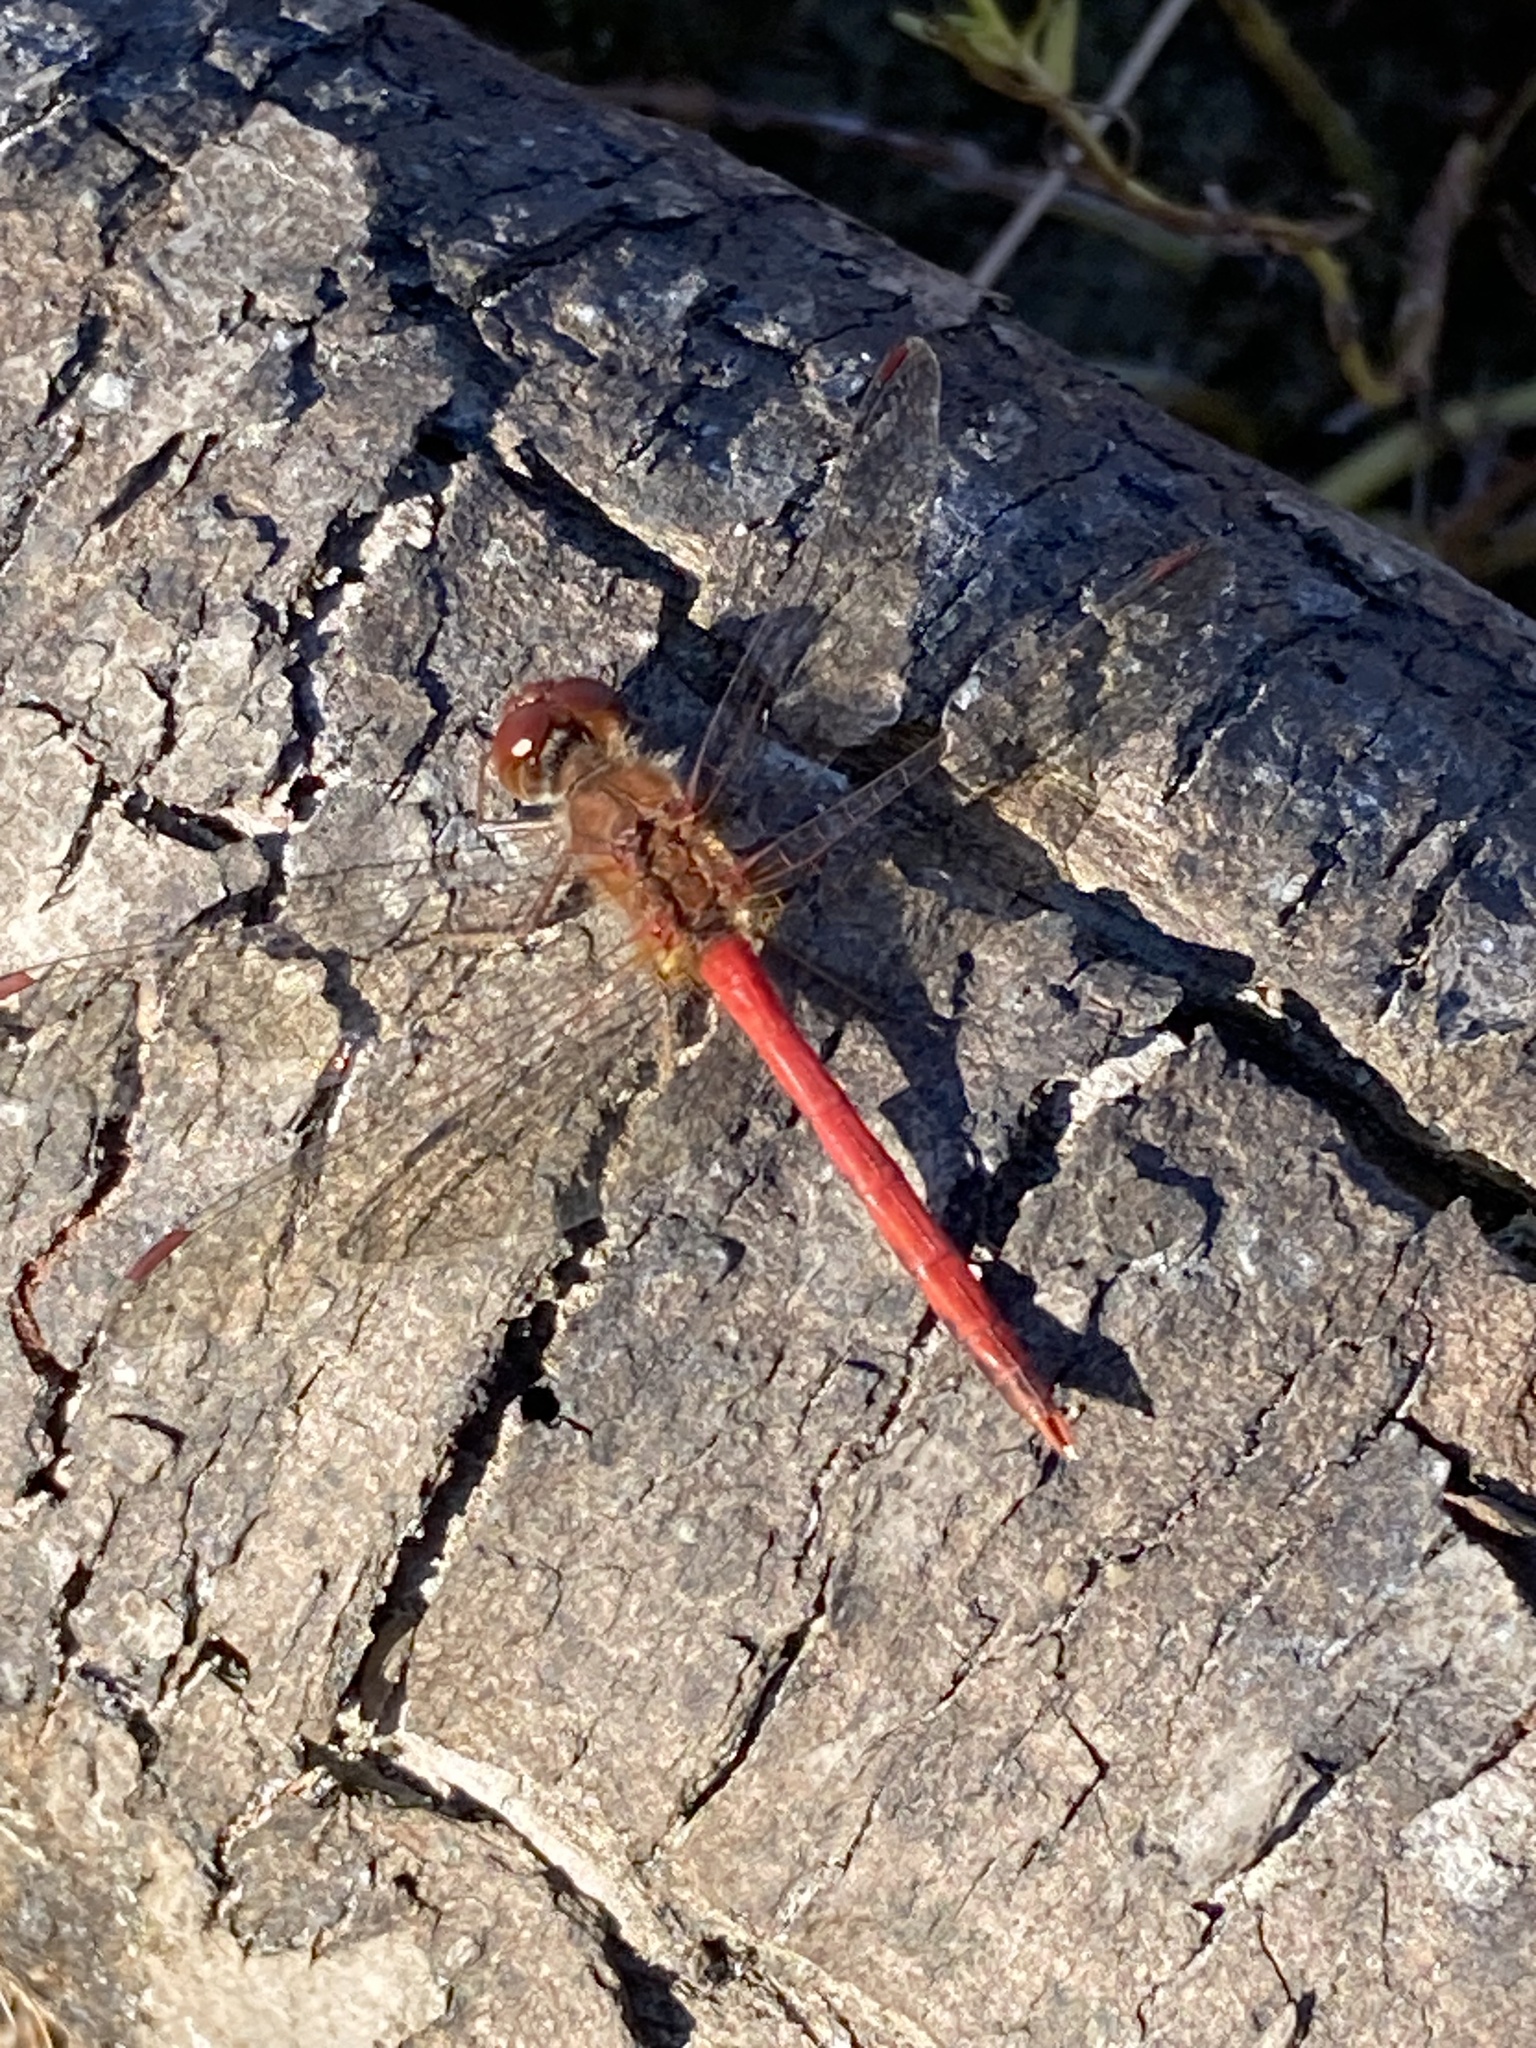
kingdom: Animalia
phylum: Arthropoda
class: Insecta
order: Odonata
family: Libellulidae
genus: Sympetrum
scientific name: Sympetrum vicinum
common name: Autumn meadowhawk
